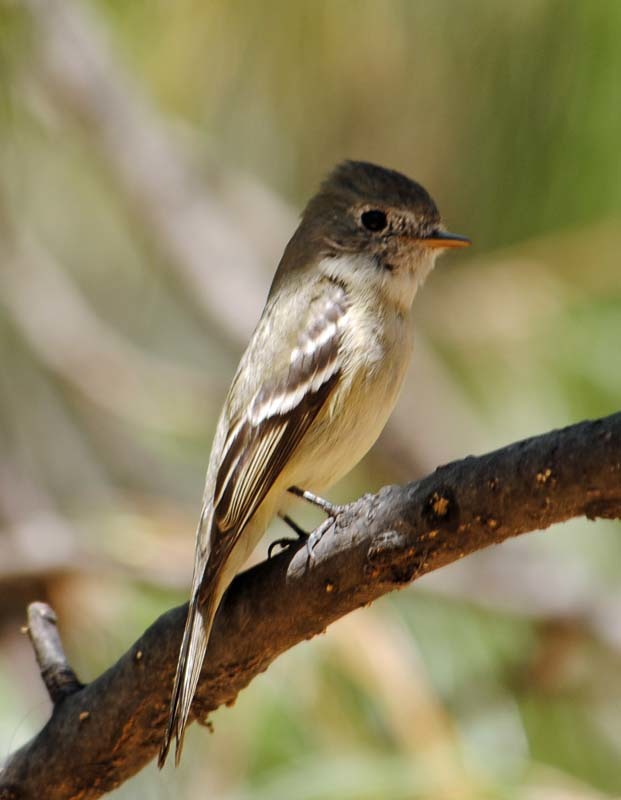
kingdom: Animalia
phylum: Chordata
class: Aves
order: Passeriformes
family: Tyrannidae
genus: Empidonax
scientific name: Empidonax hammondii
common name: Hammond's flycatcher
